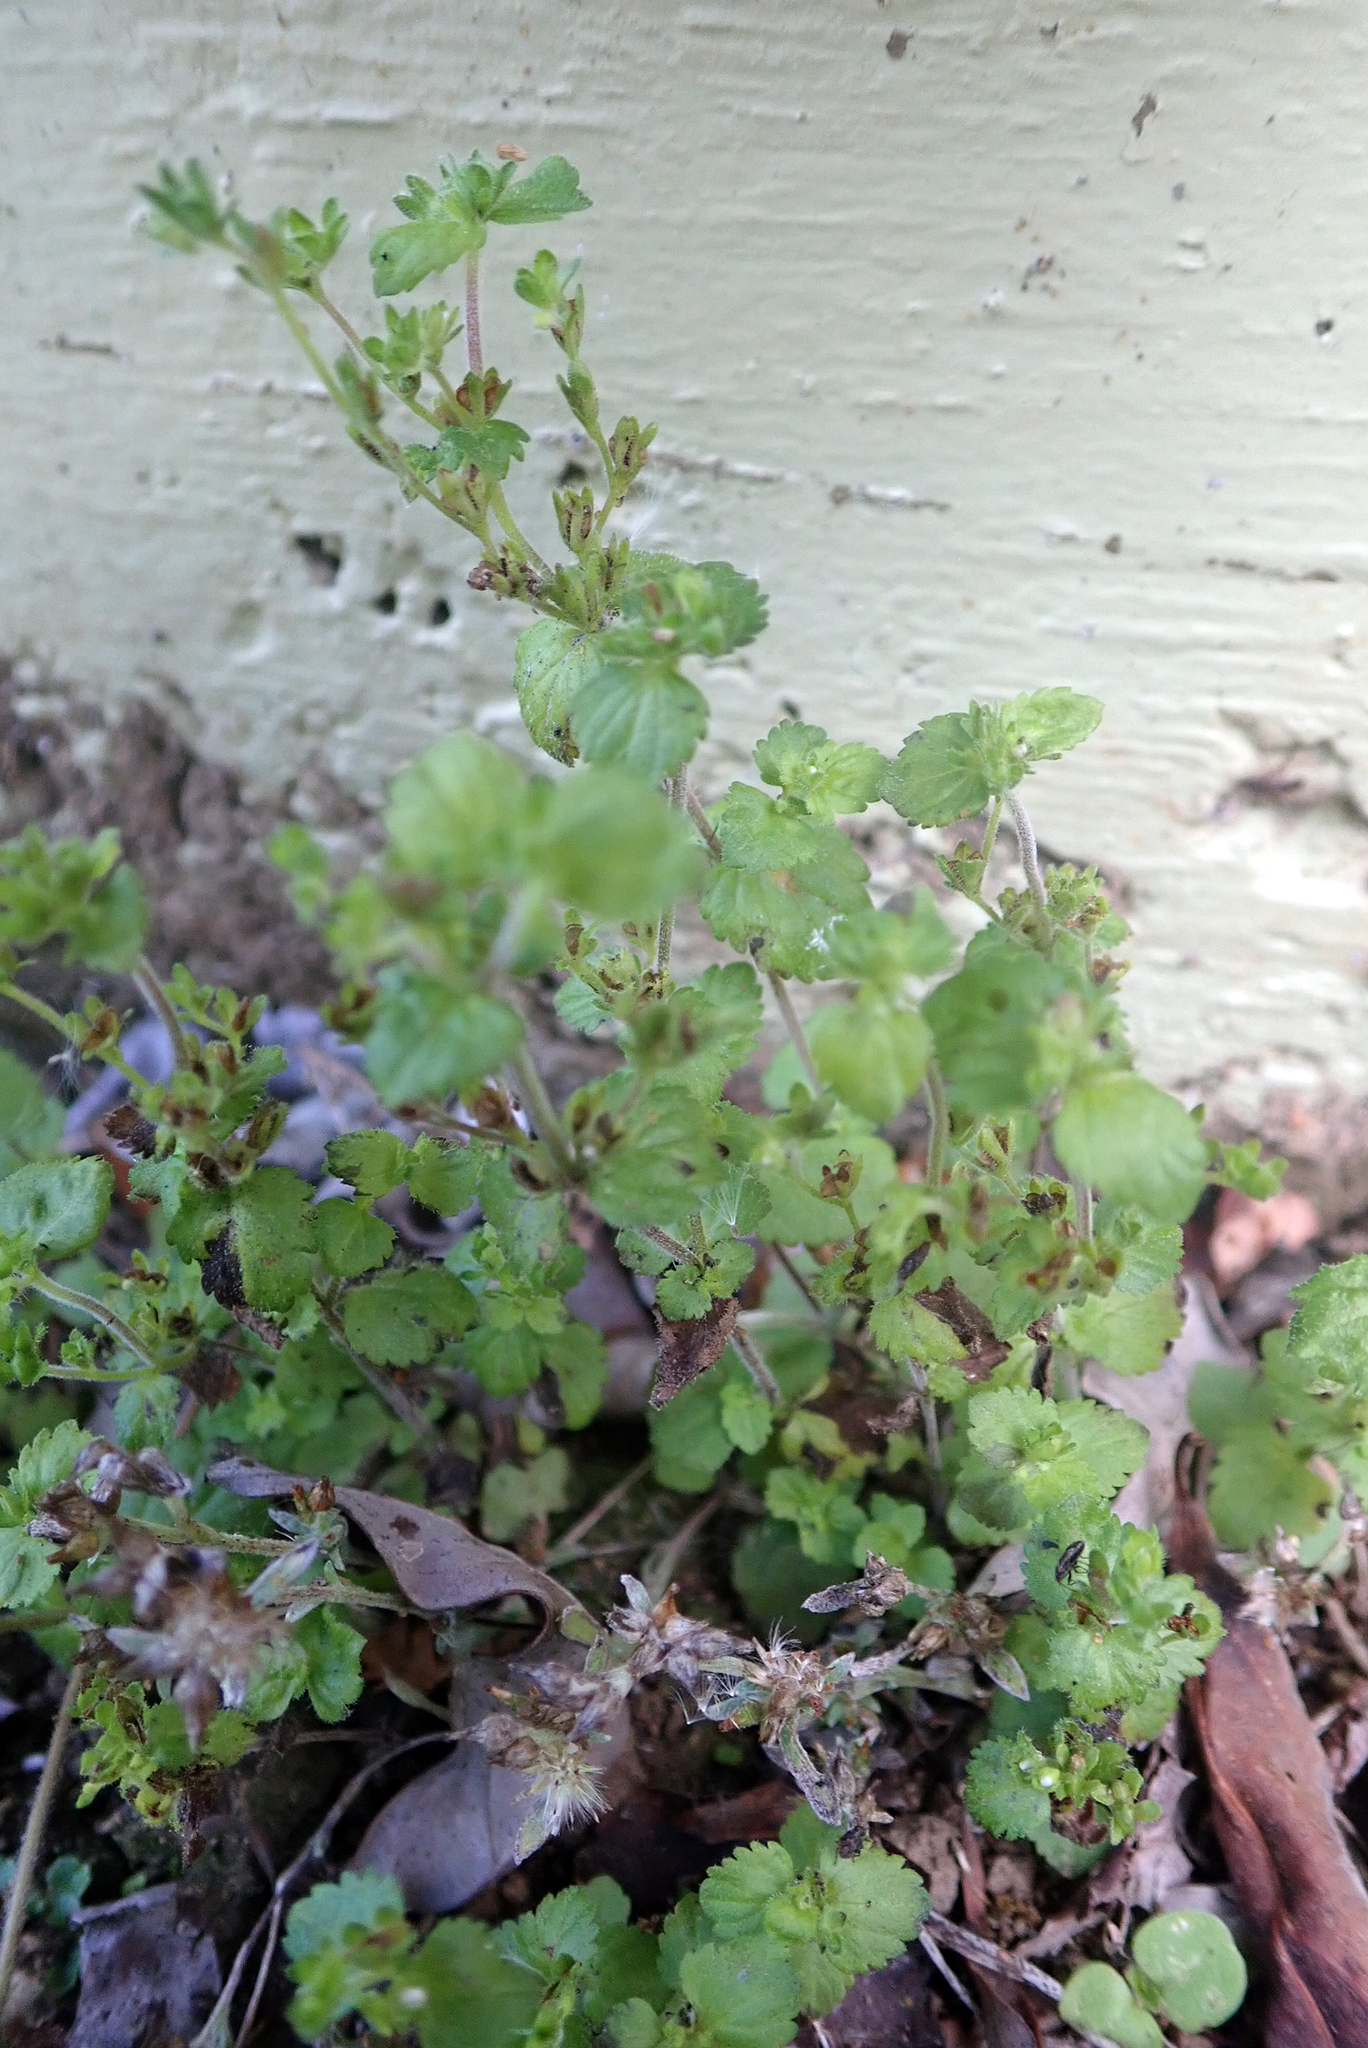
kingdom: Plantae
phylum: Tracheophyta
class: Magnoliopsida
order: Lamiales
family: Plantaginaceae
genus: Veronica
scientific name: Veronica javanica
